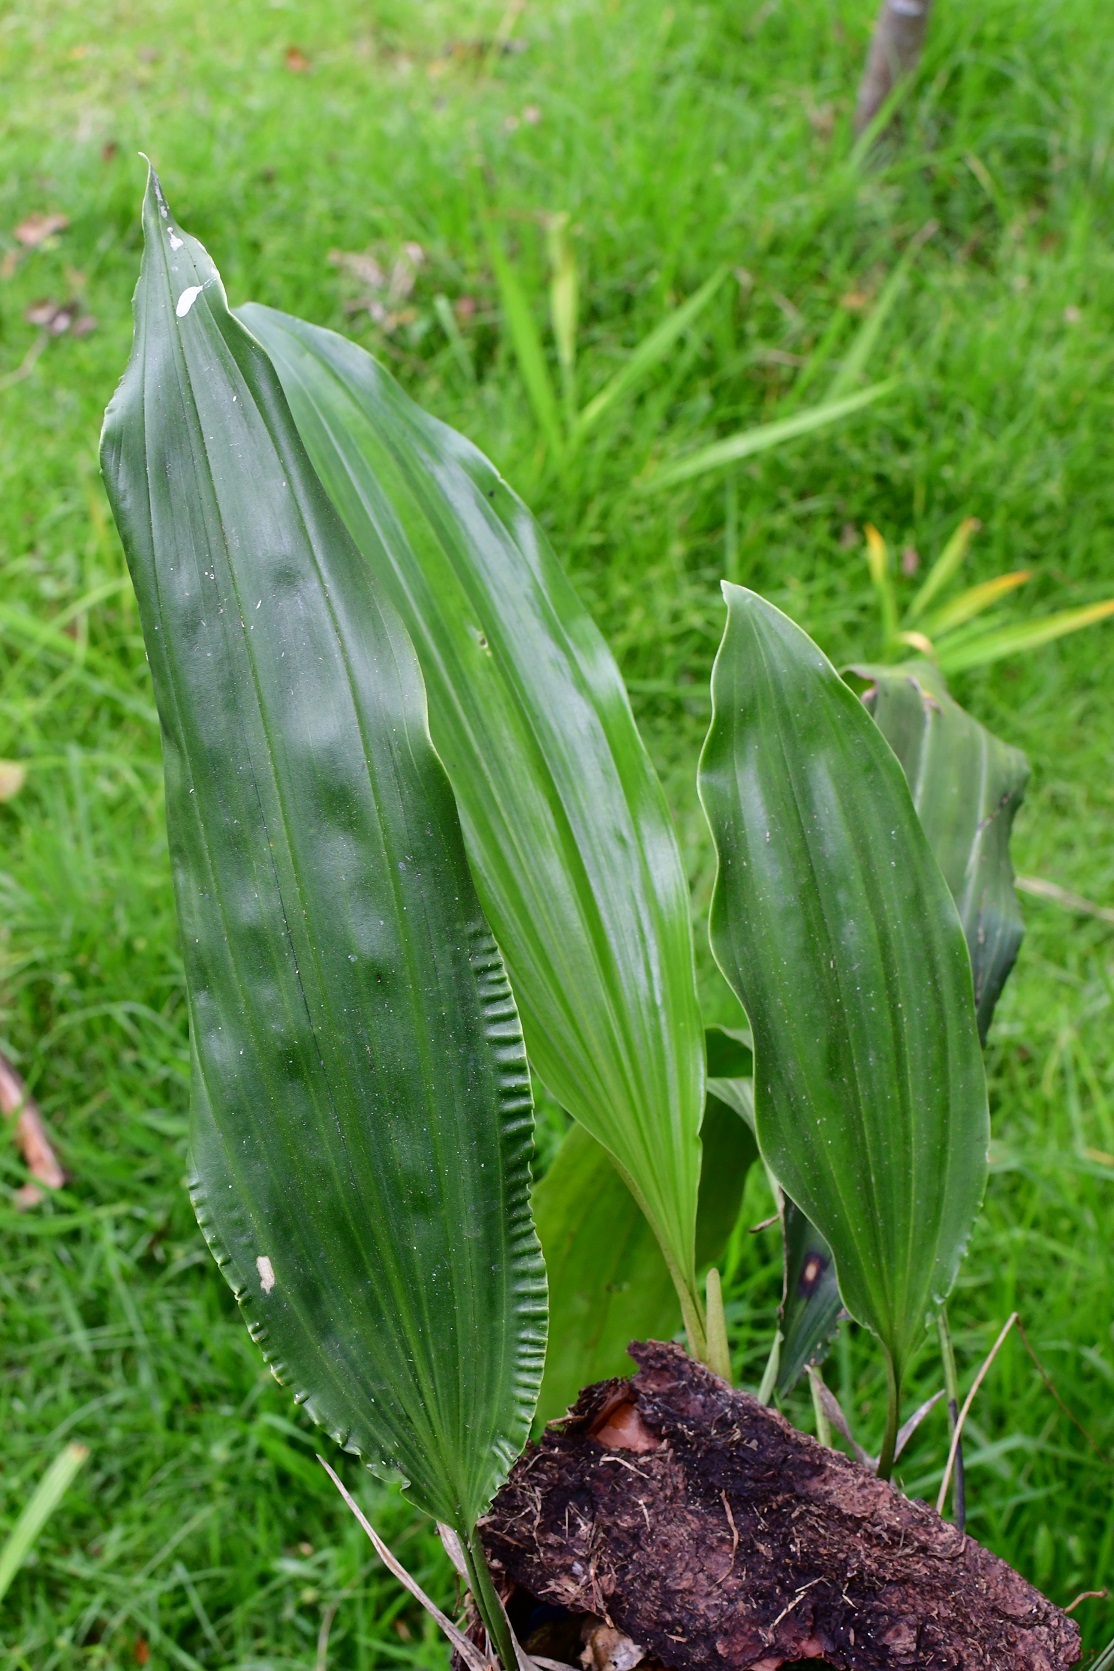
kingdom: Plantae
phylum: Tracheophyta
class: Liliopsida
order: Asparagales
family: Orchidaceae
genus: Stanhopea
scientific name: Stanhopea graveolens
